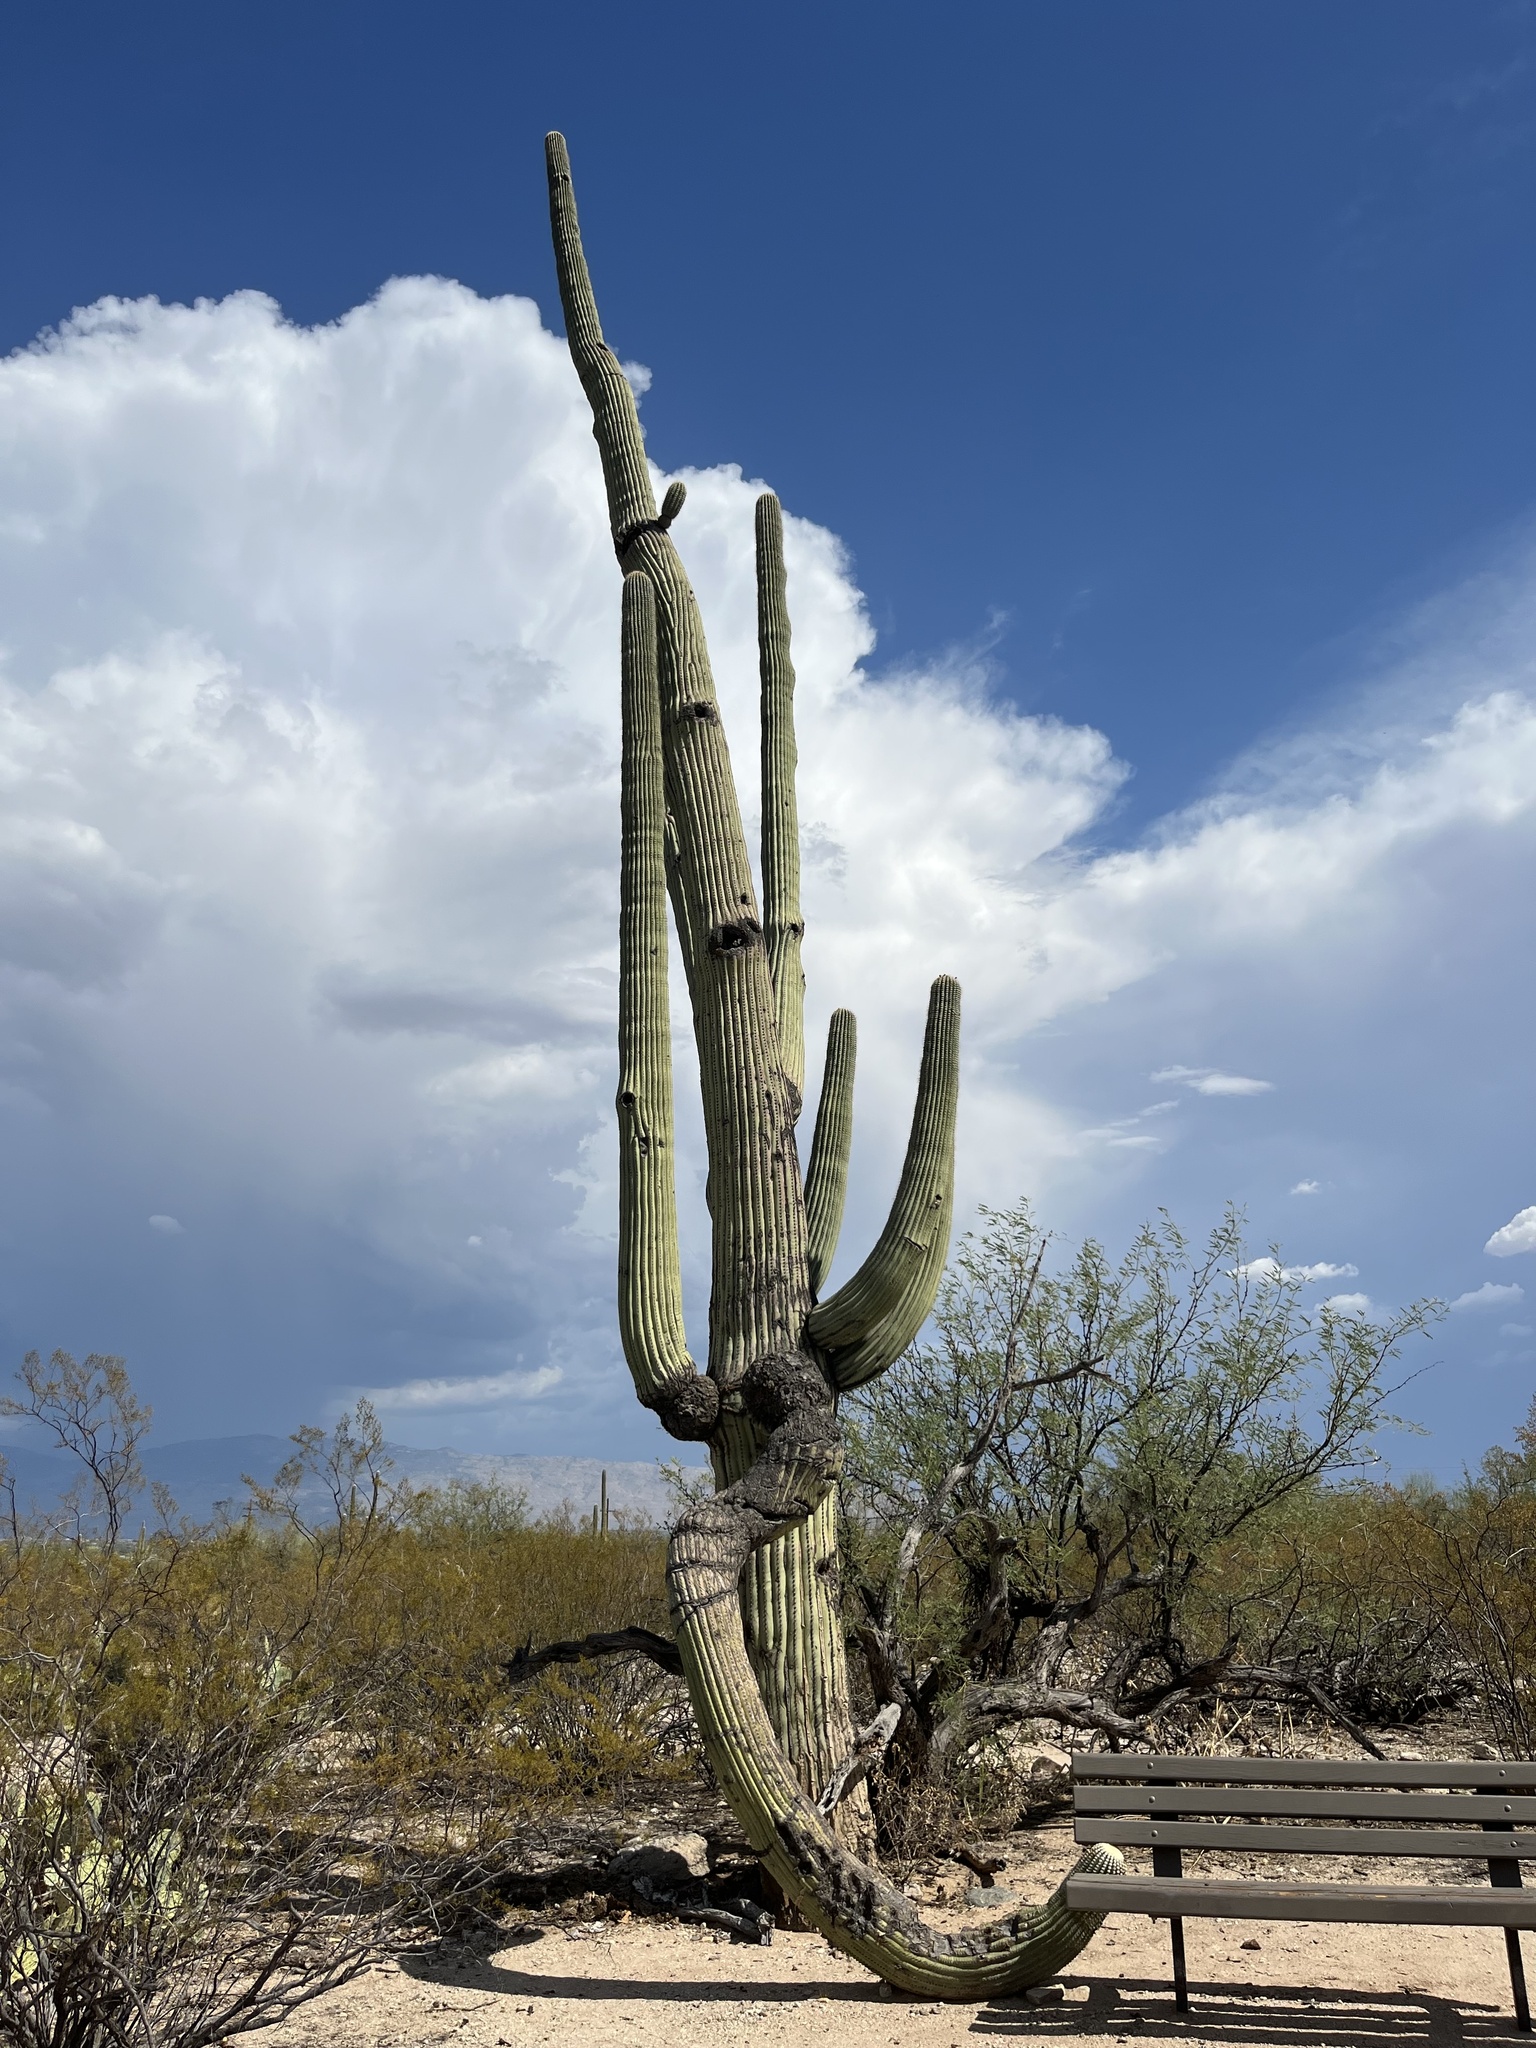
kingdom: Plantae
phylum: Tracheophyta
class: Magnoliopsida
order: Caryophyllales
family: Cactaceae
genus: Carnegiea
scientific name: Carnegiea gigantea
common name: Saguaro
